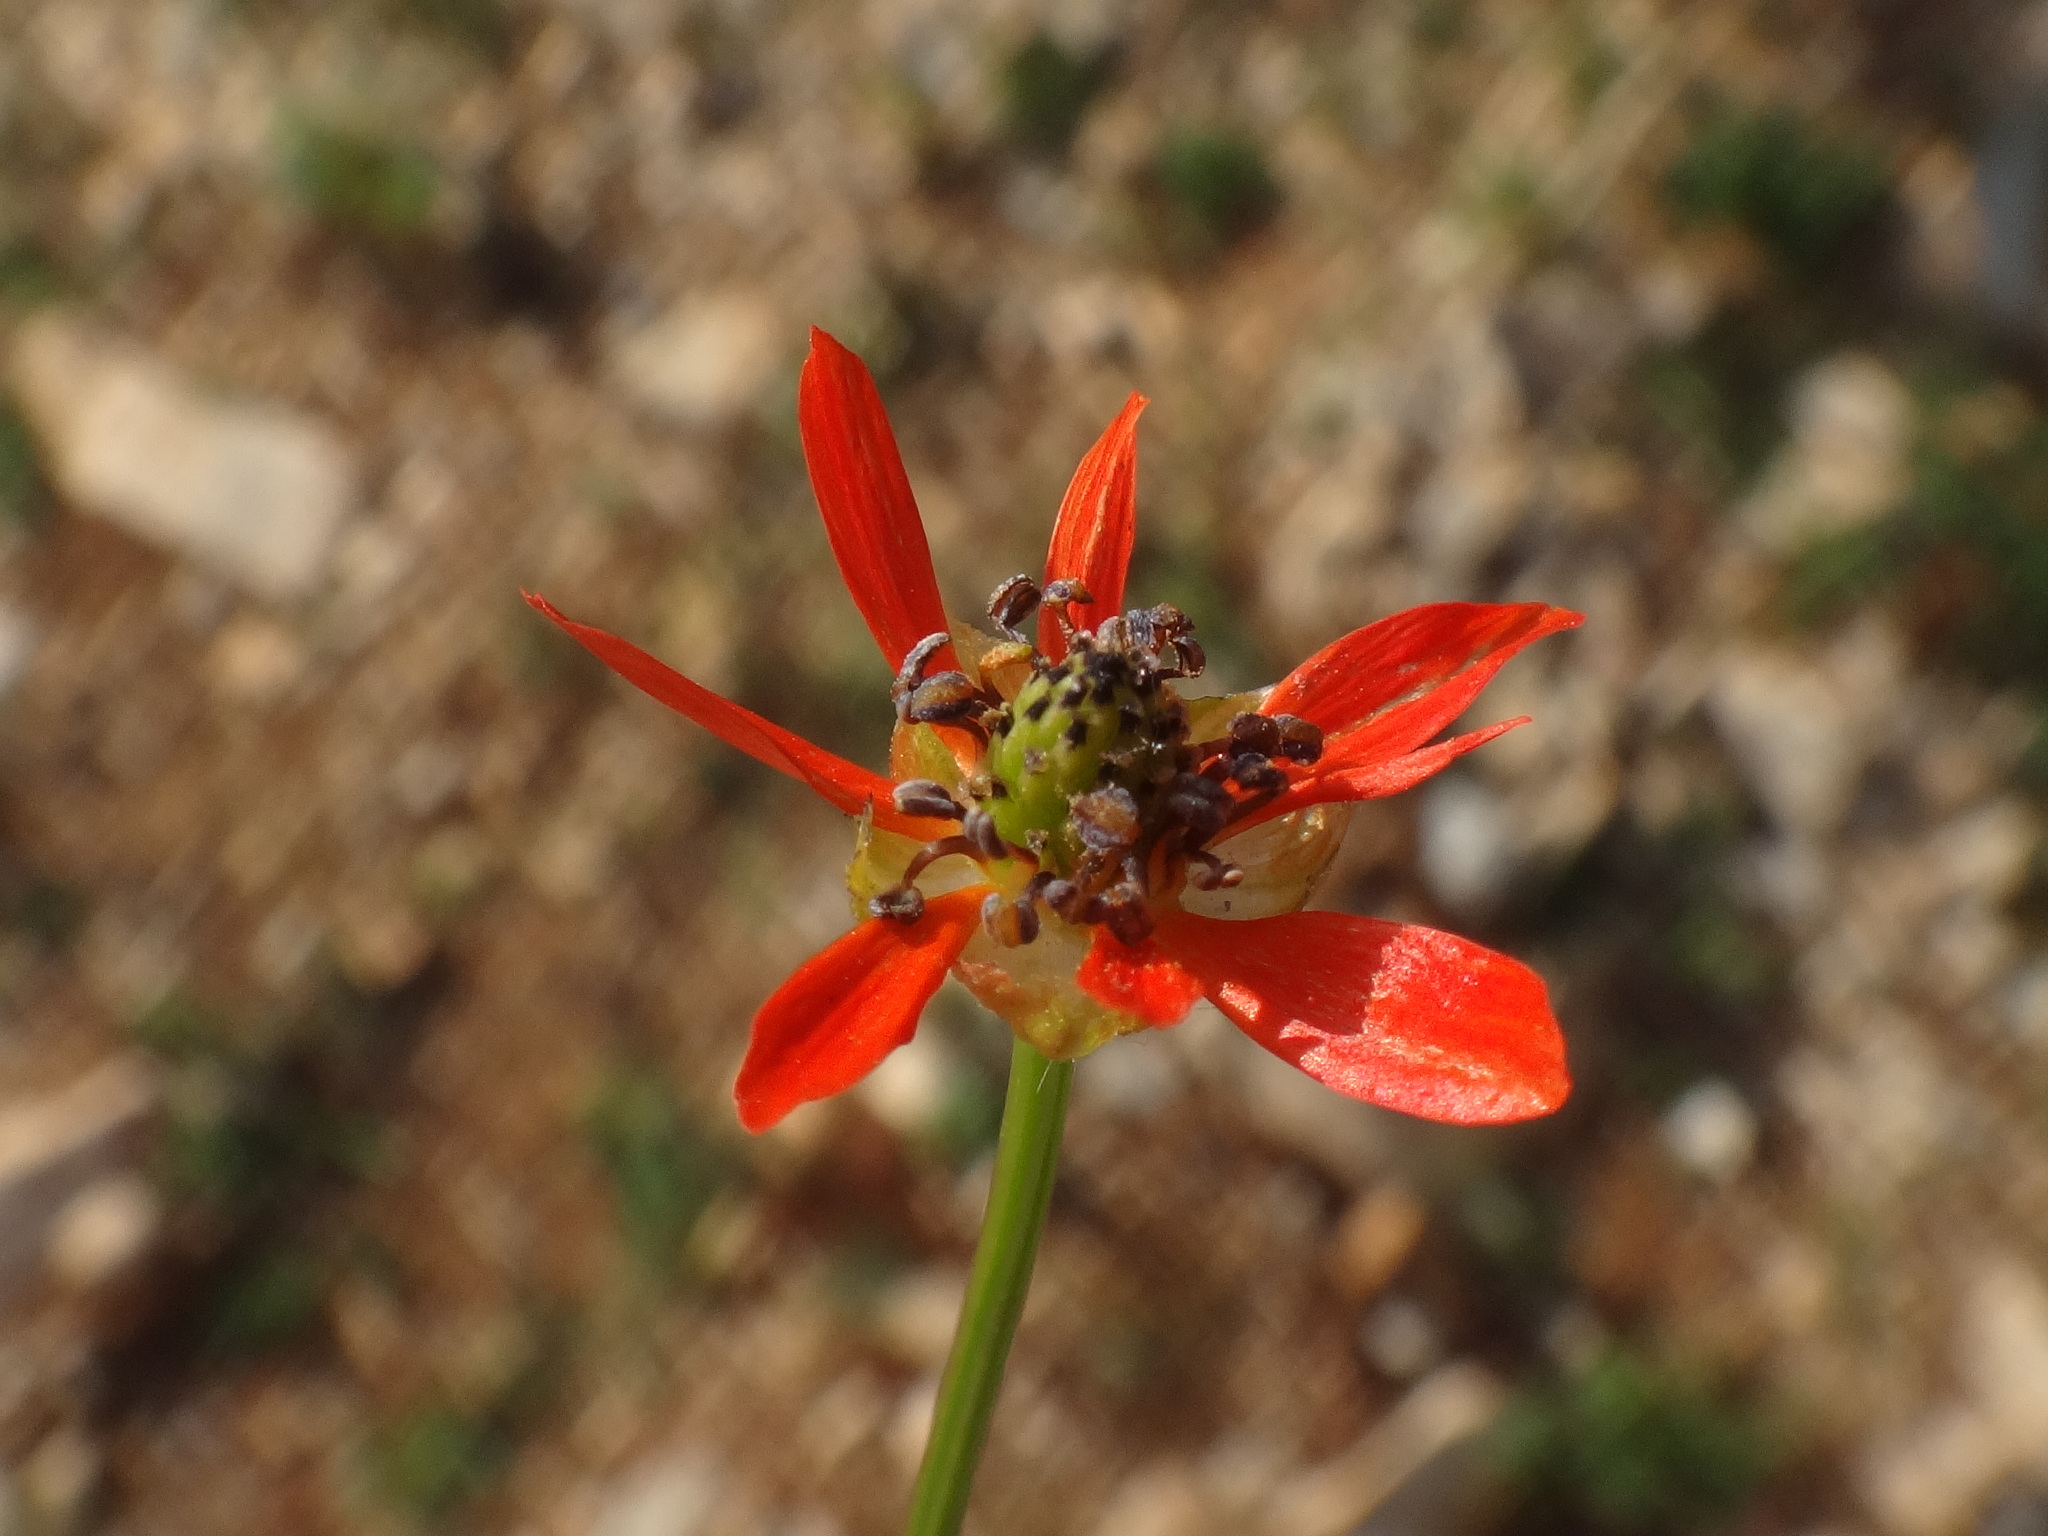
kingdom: Plantae
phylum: Tracheophyta
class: Magnoliopsida
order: Ranunculales
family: Ranunculaceae
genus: Adonis
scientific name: Adonis flammea
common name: Large pheasant's-eye
